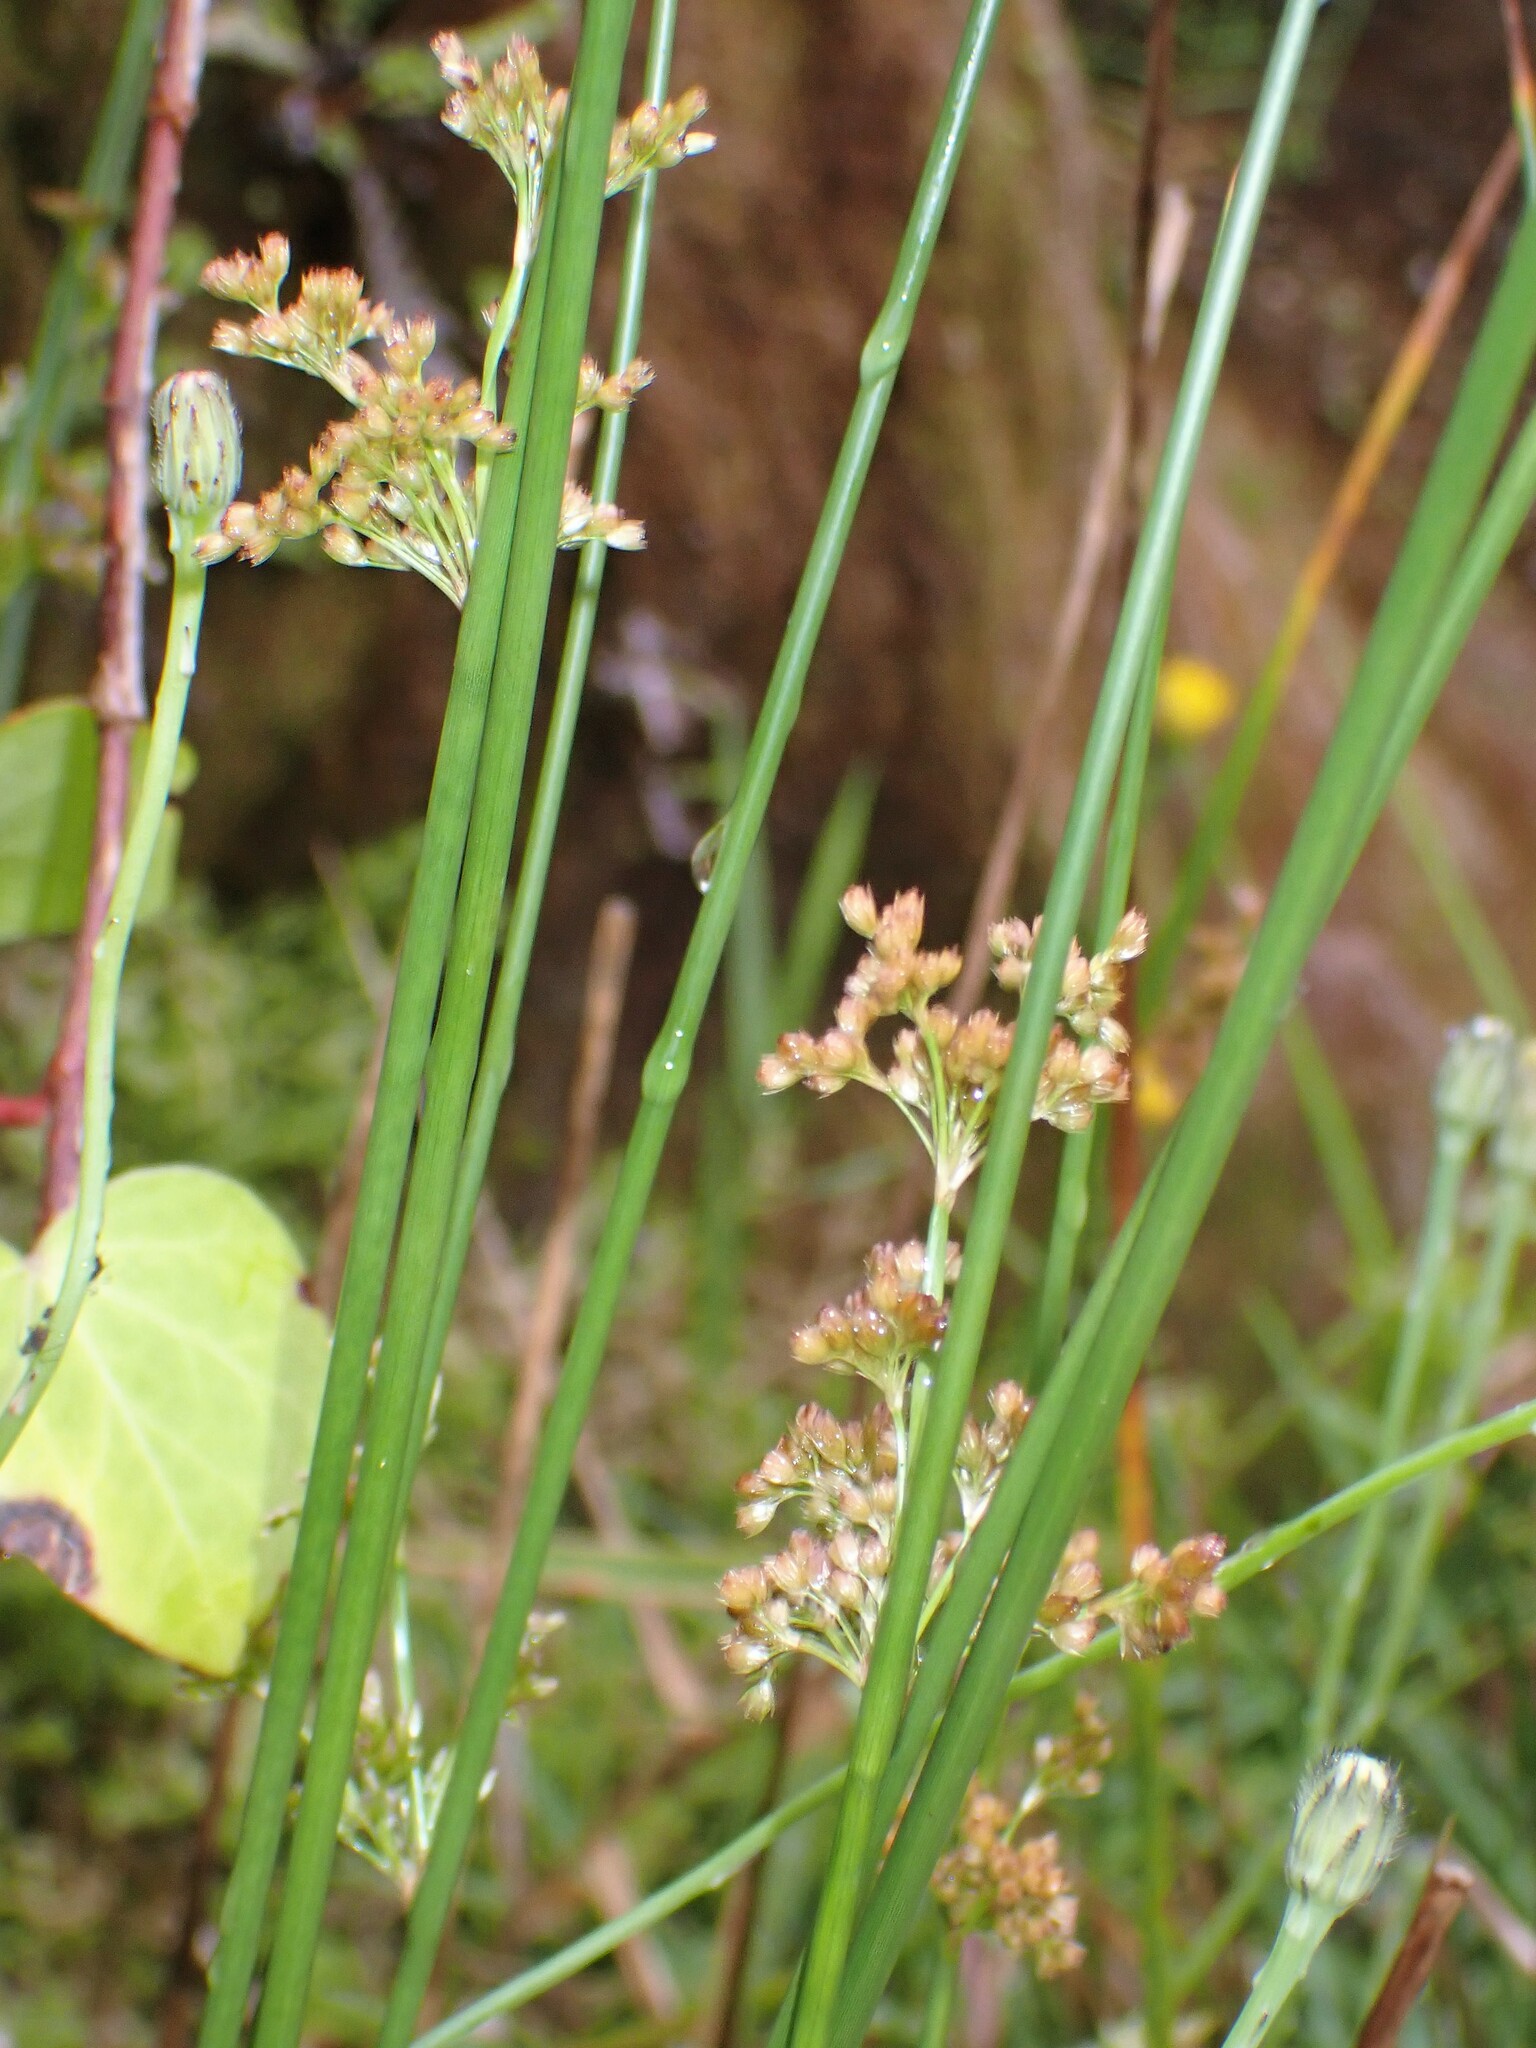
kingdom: Plantae
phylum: Tracheophyta
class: Liliopsida
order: Poales
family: Juncaceae
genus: Juncus
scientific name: Juncus effusus
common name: Soft rush
